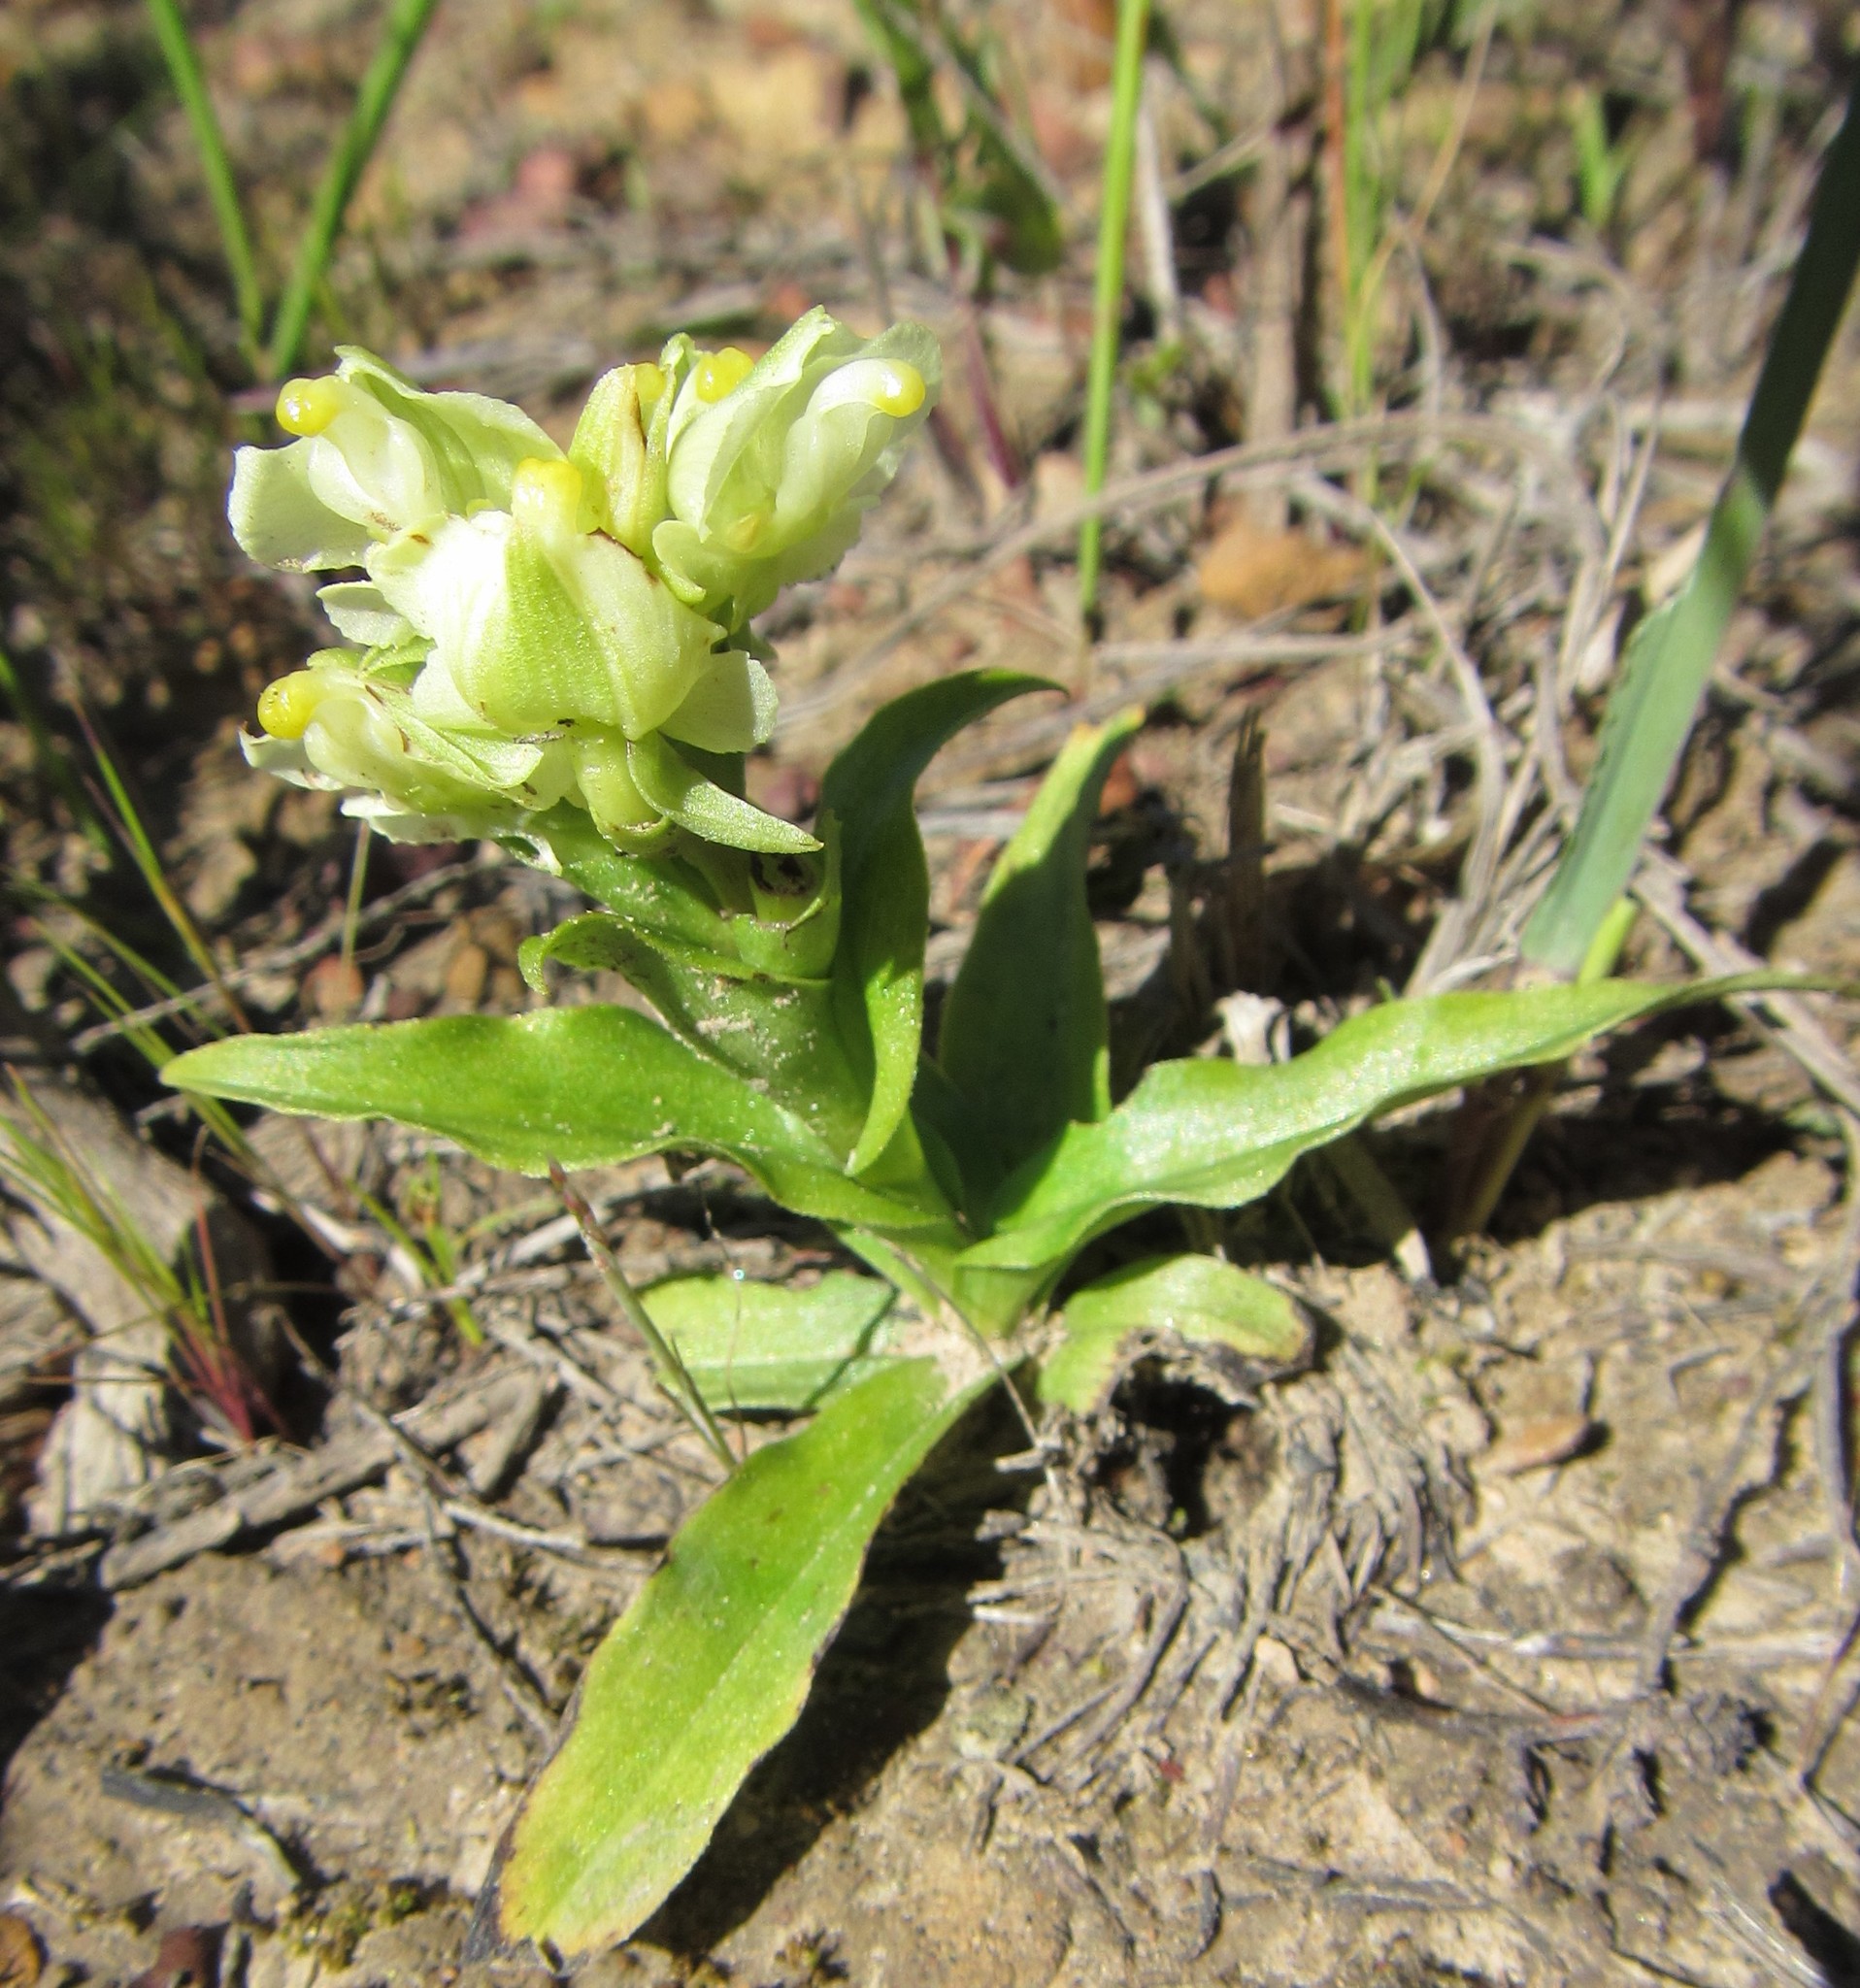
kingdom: Plantae
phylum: Tracheophyta
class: Liliopsida
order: Asparagales
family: Orchidaceae
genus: Pterygodium
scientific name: Pterygodium alatum
